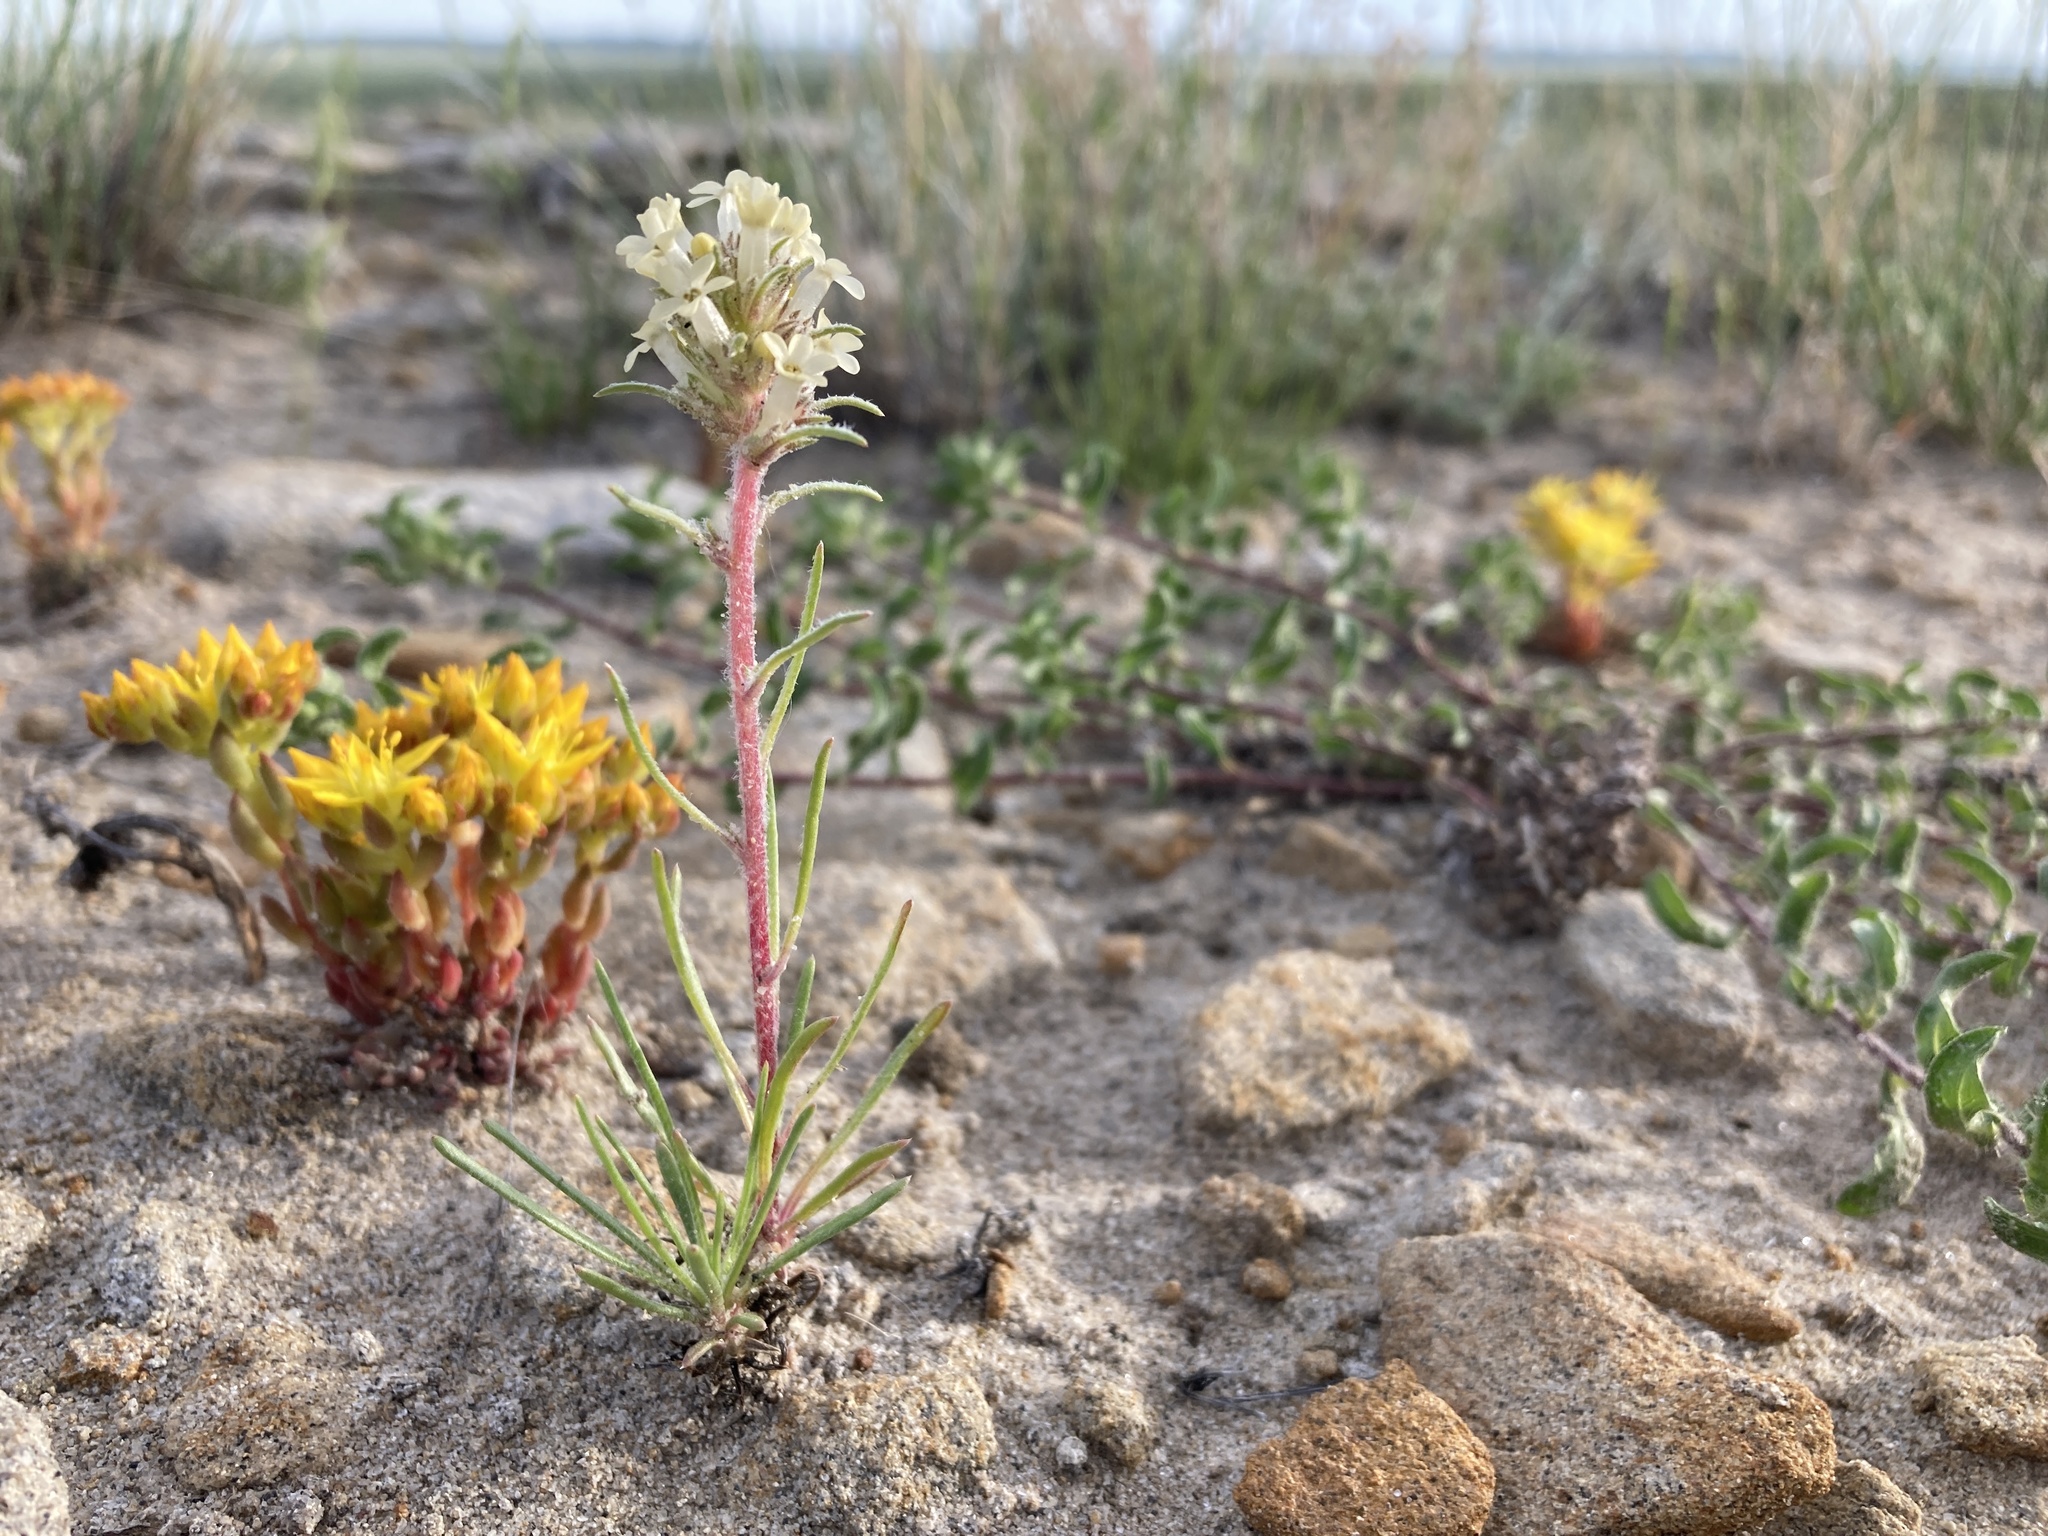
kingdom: Plantae
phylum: Tracheophyta
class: Magnoliopsida
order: Ericales
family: Polemoniaceae
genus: Ipomopsis
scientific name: Ipomopsis spicata
